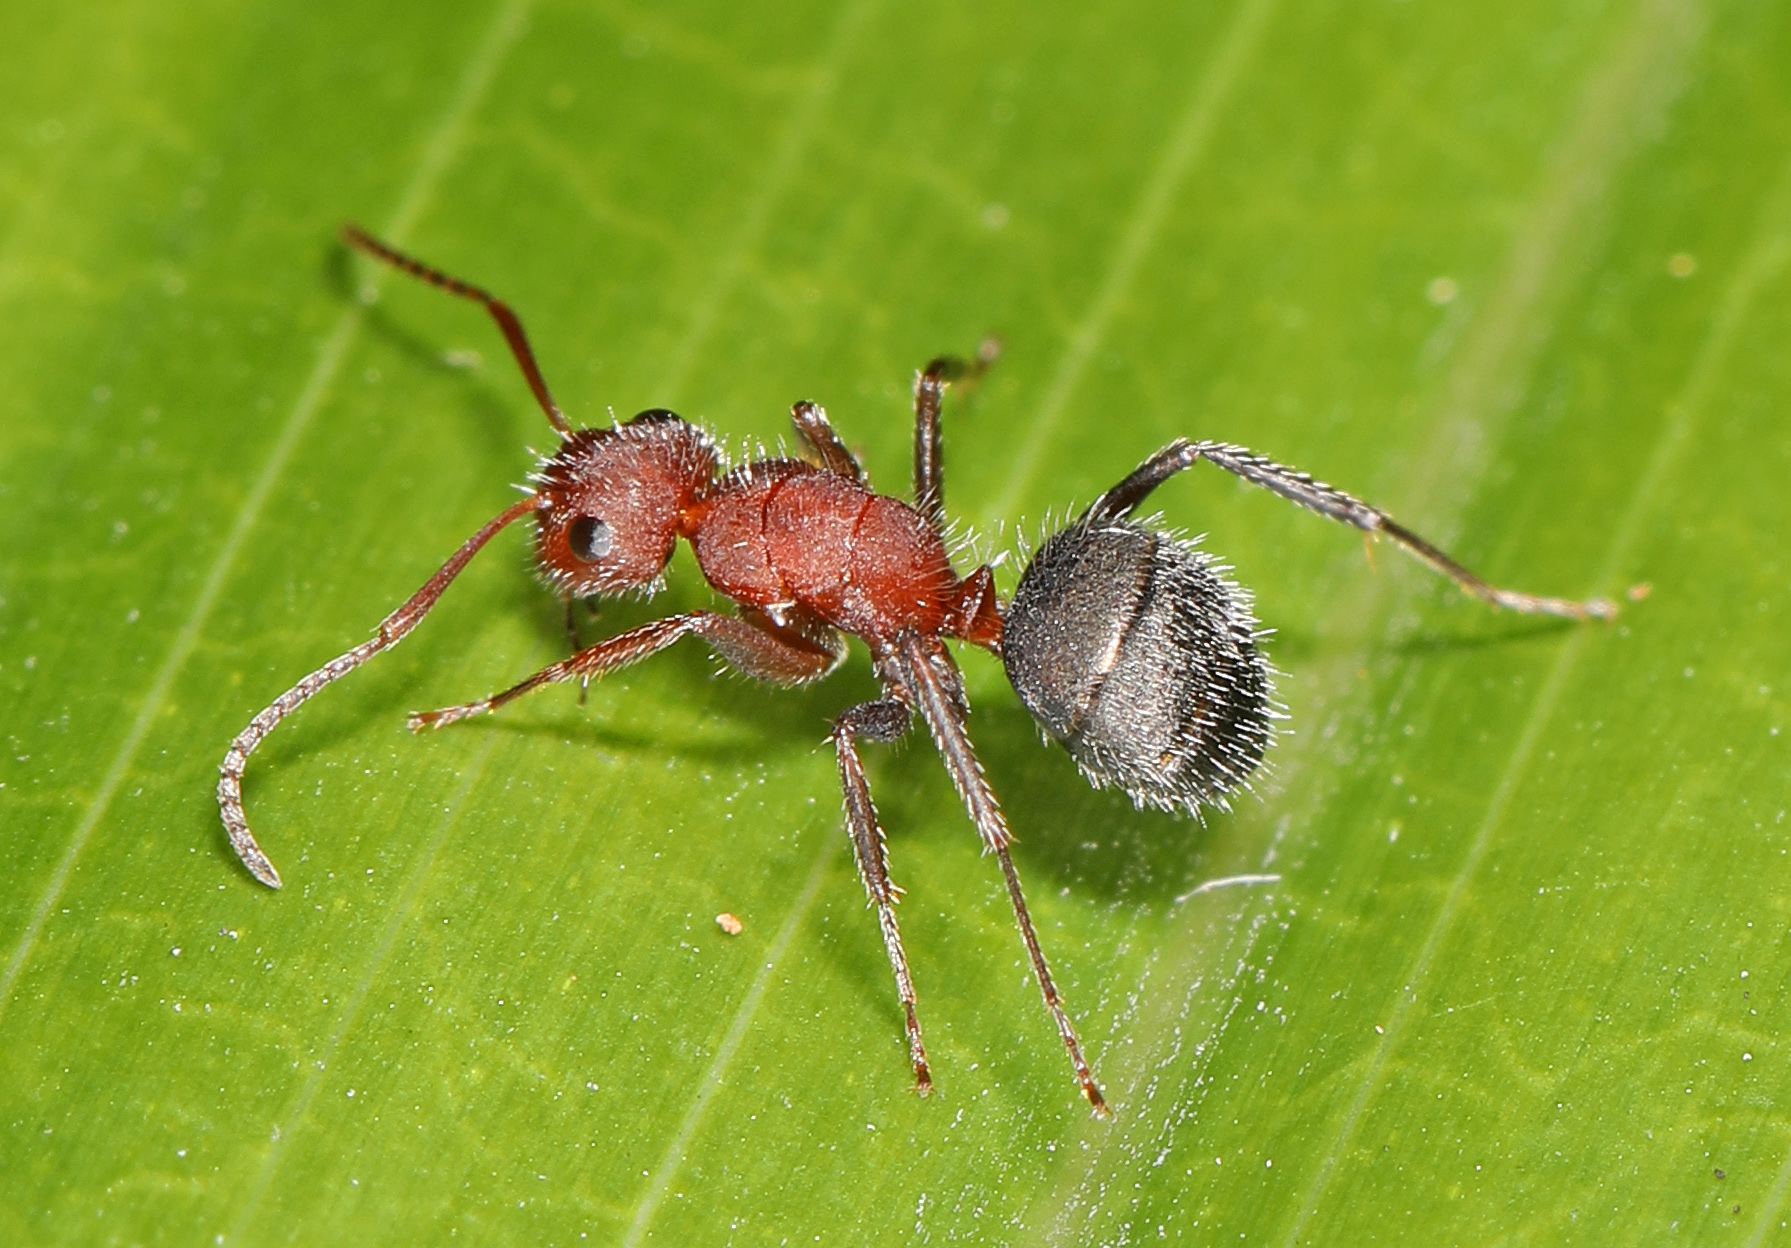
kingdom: Animalia
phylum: Arthropoda
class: Insecta
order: Hymenoptera
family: Formicidae
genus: Camponotus
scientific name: Camponotus planatus
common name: Compact carpenter ant
